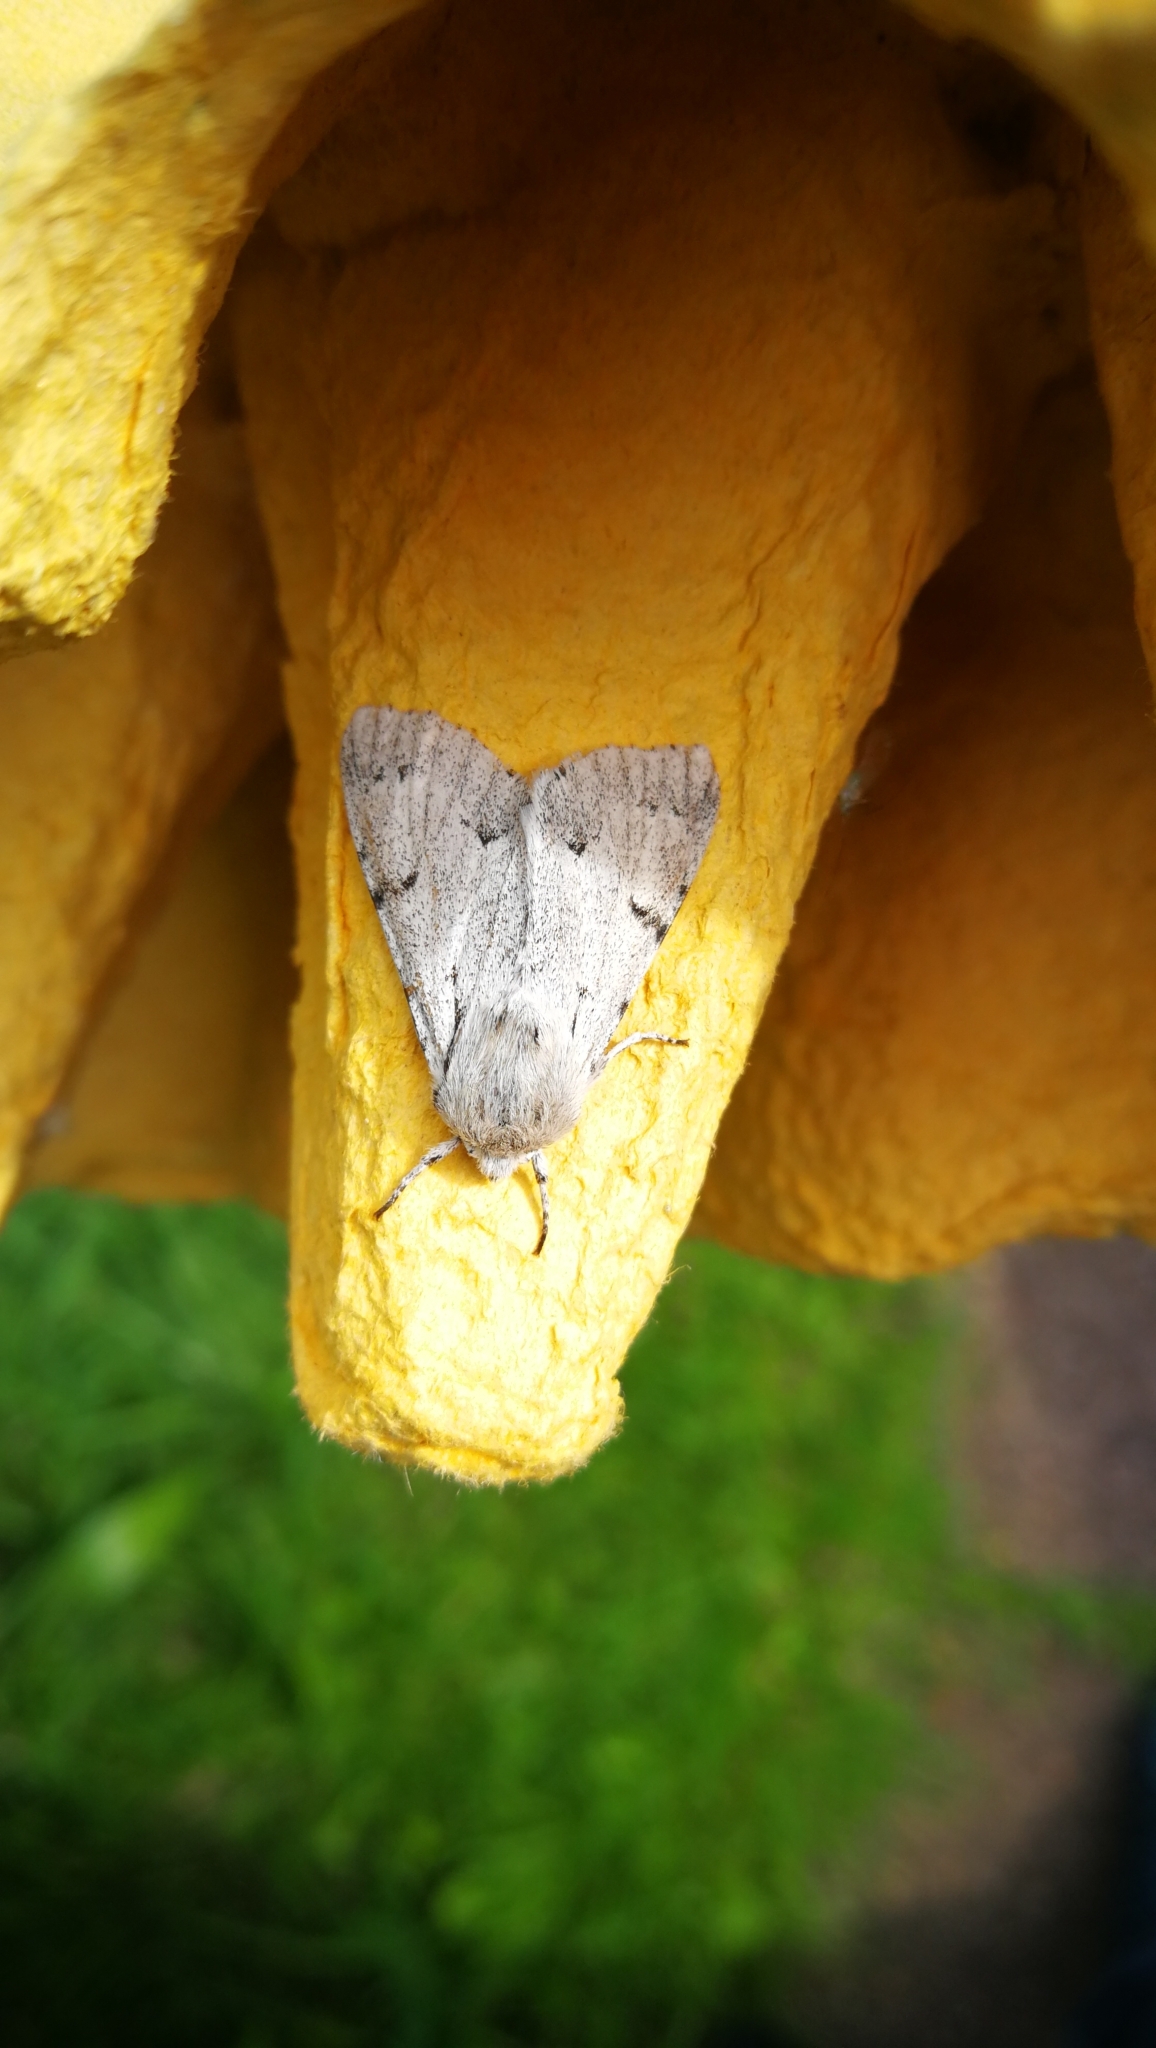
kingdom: Animalia
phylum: Arthropoda
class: Insecta
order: Lepidoptera
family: Noctuidae
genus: Acronicta
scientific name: Acronicta leporina
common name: Miller
